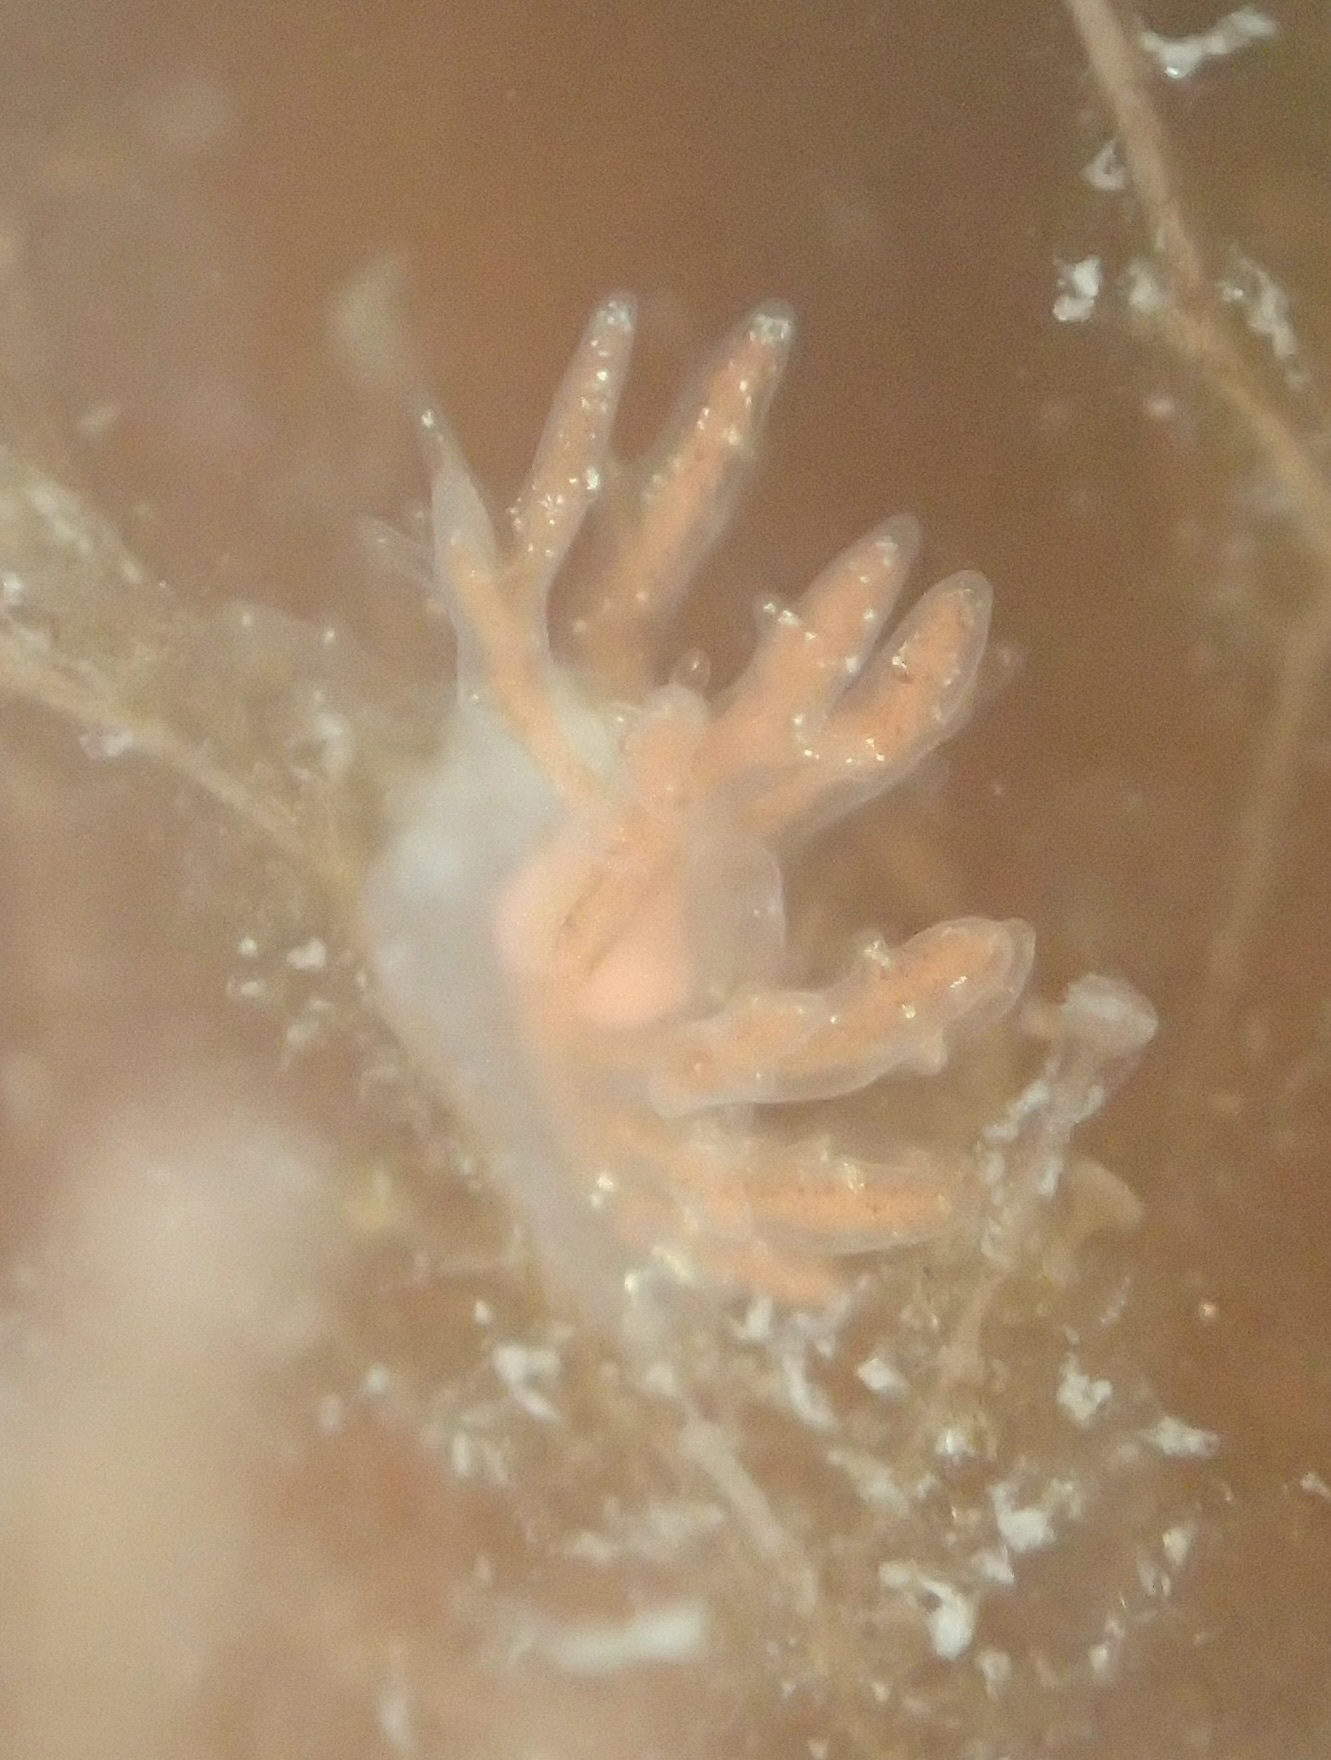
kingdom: Animalia
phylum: Mollusca
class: Gastropoda
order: Nudibranchia
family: Dendronotidae
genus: Dendronotus
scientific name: Dendronotus venustus
